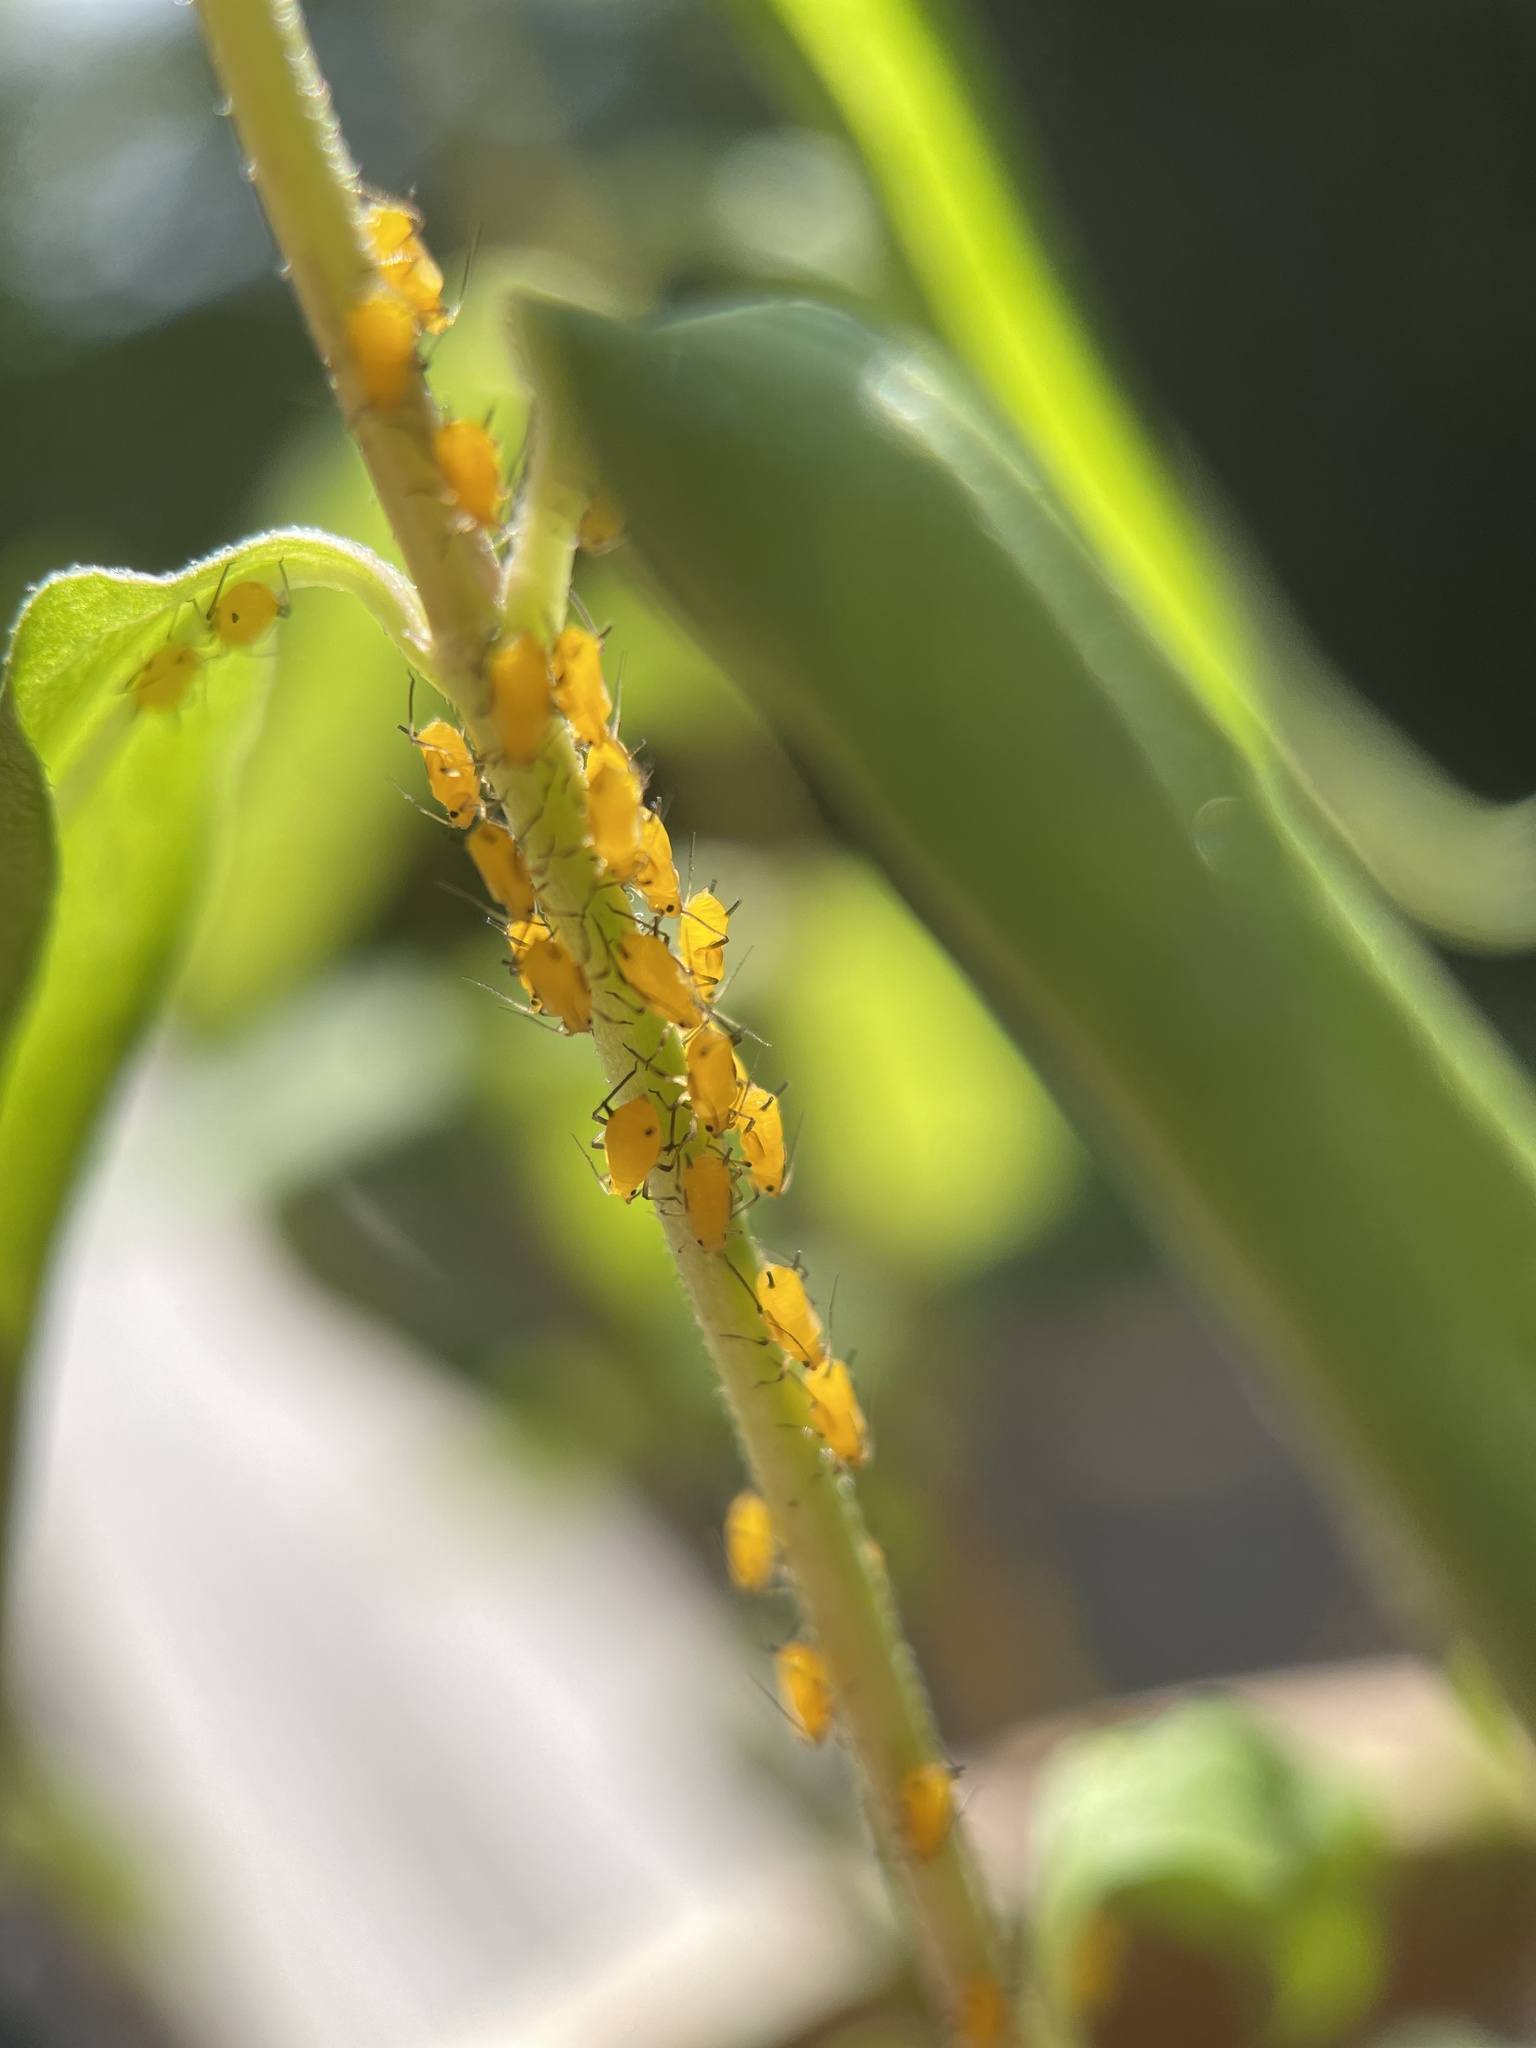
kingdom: Animalia
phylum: Arthropoda
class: Insecta
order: Hemiptera
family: Aphididae
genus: Aphis
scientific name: Aphis nerii
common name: Oleander aphid
